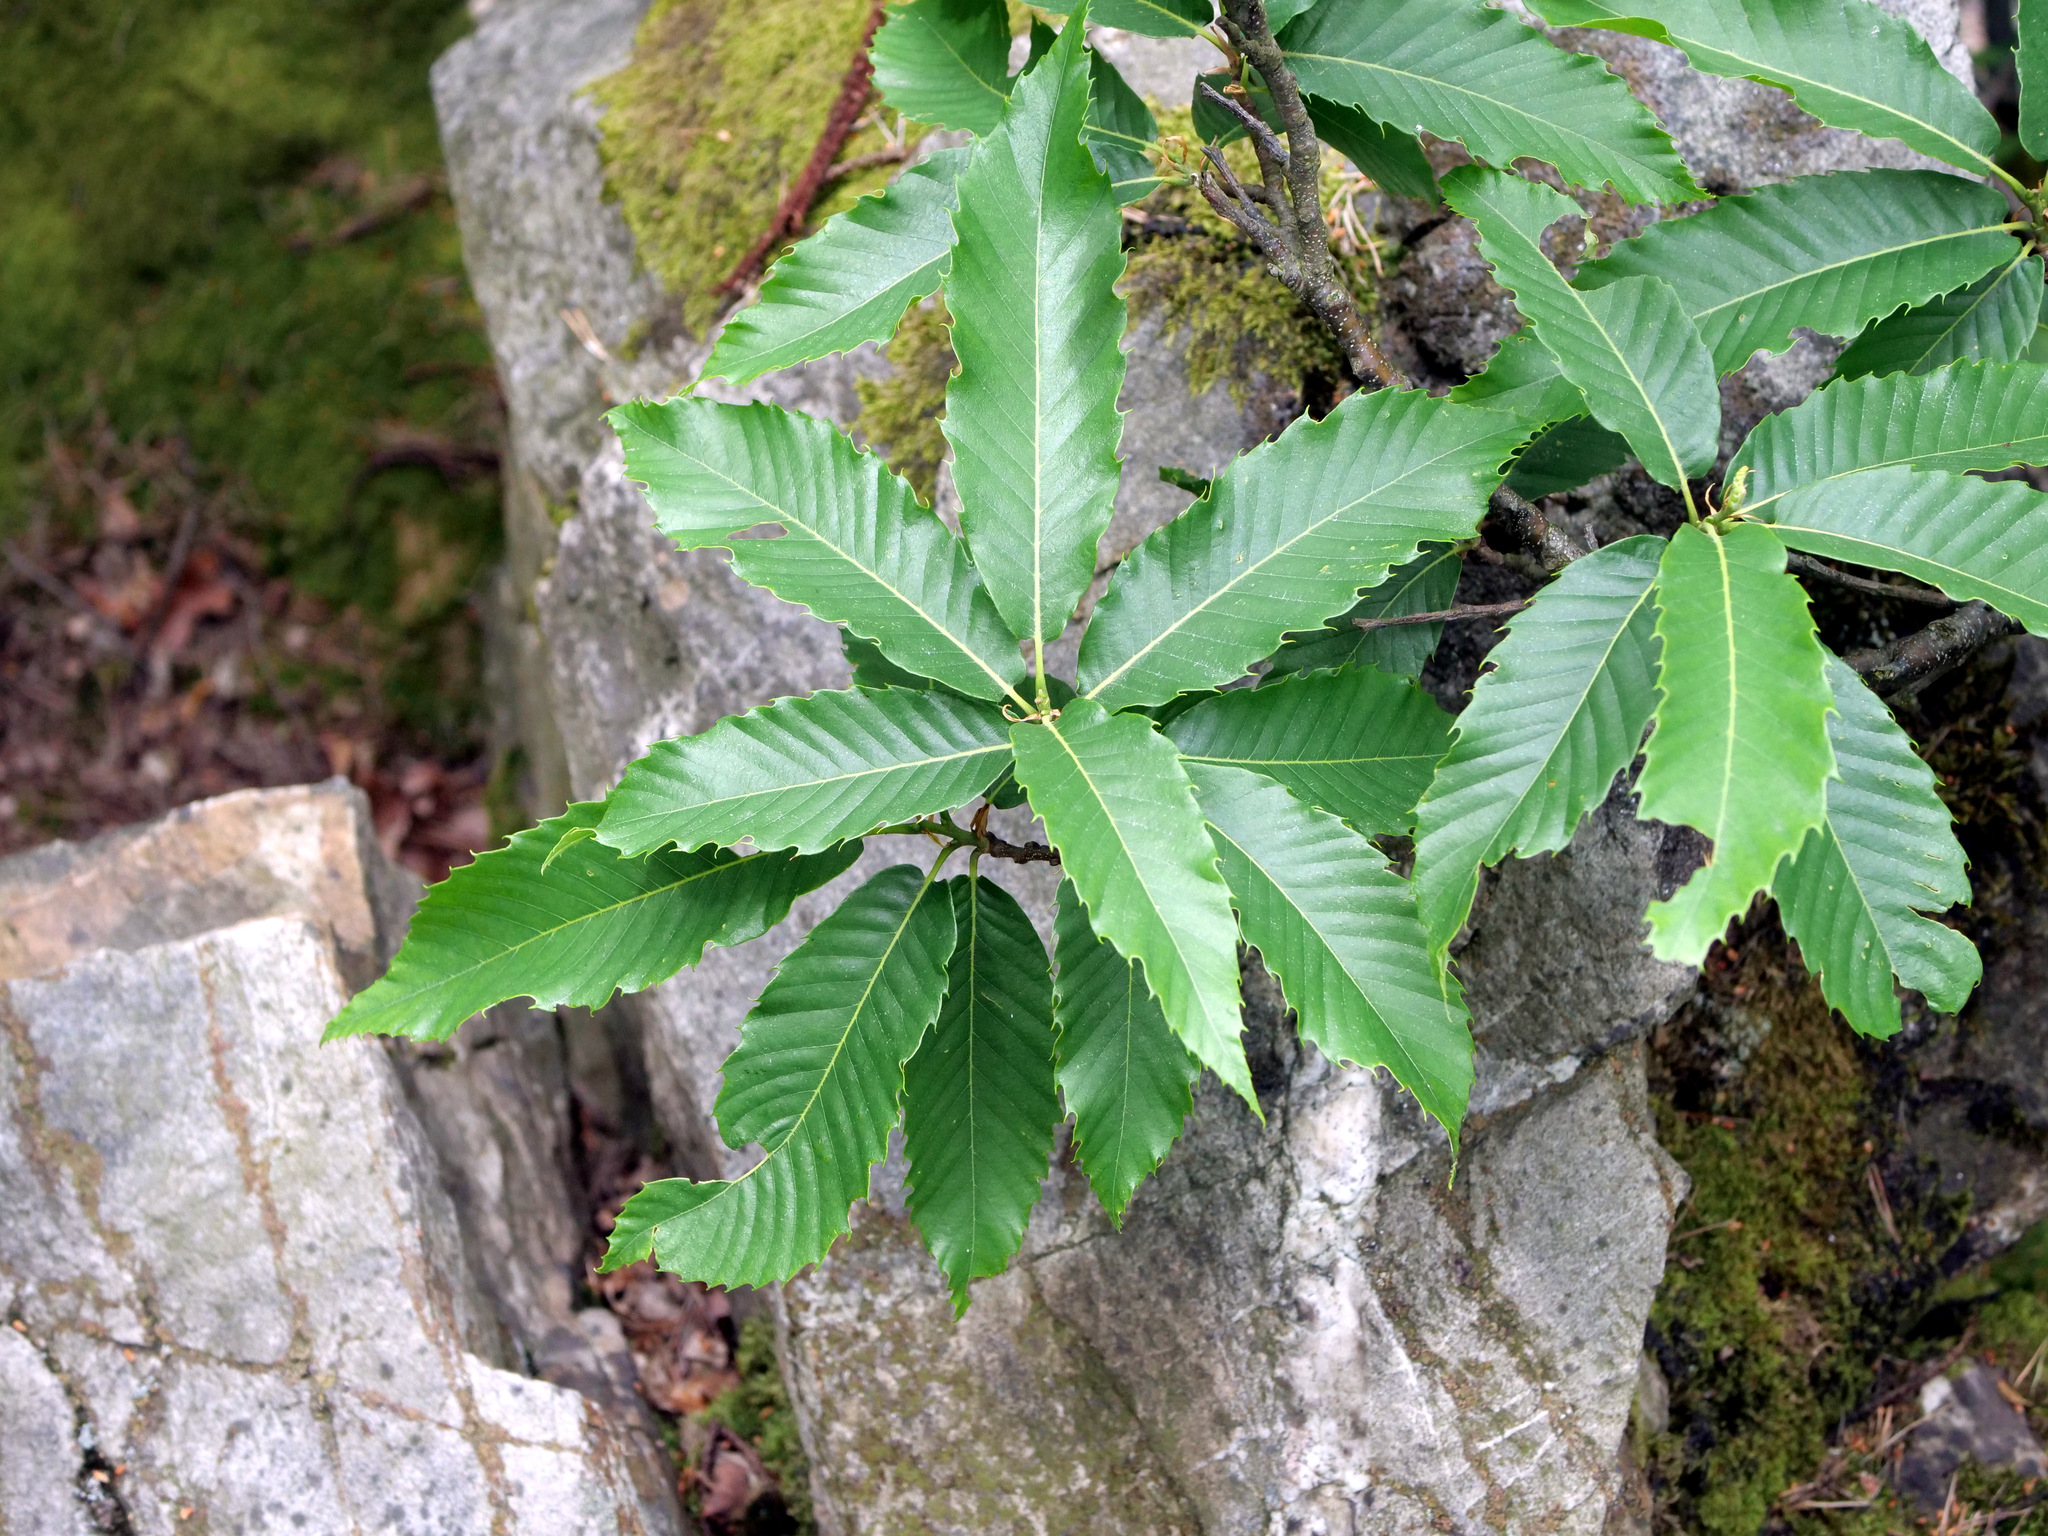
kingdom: Plantae
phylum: Tracheophyta
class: Magnoliopsida
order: Fagales
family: Fagaceae
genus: Castanea
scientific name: Castanea sativa
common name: Sweet chestnut
